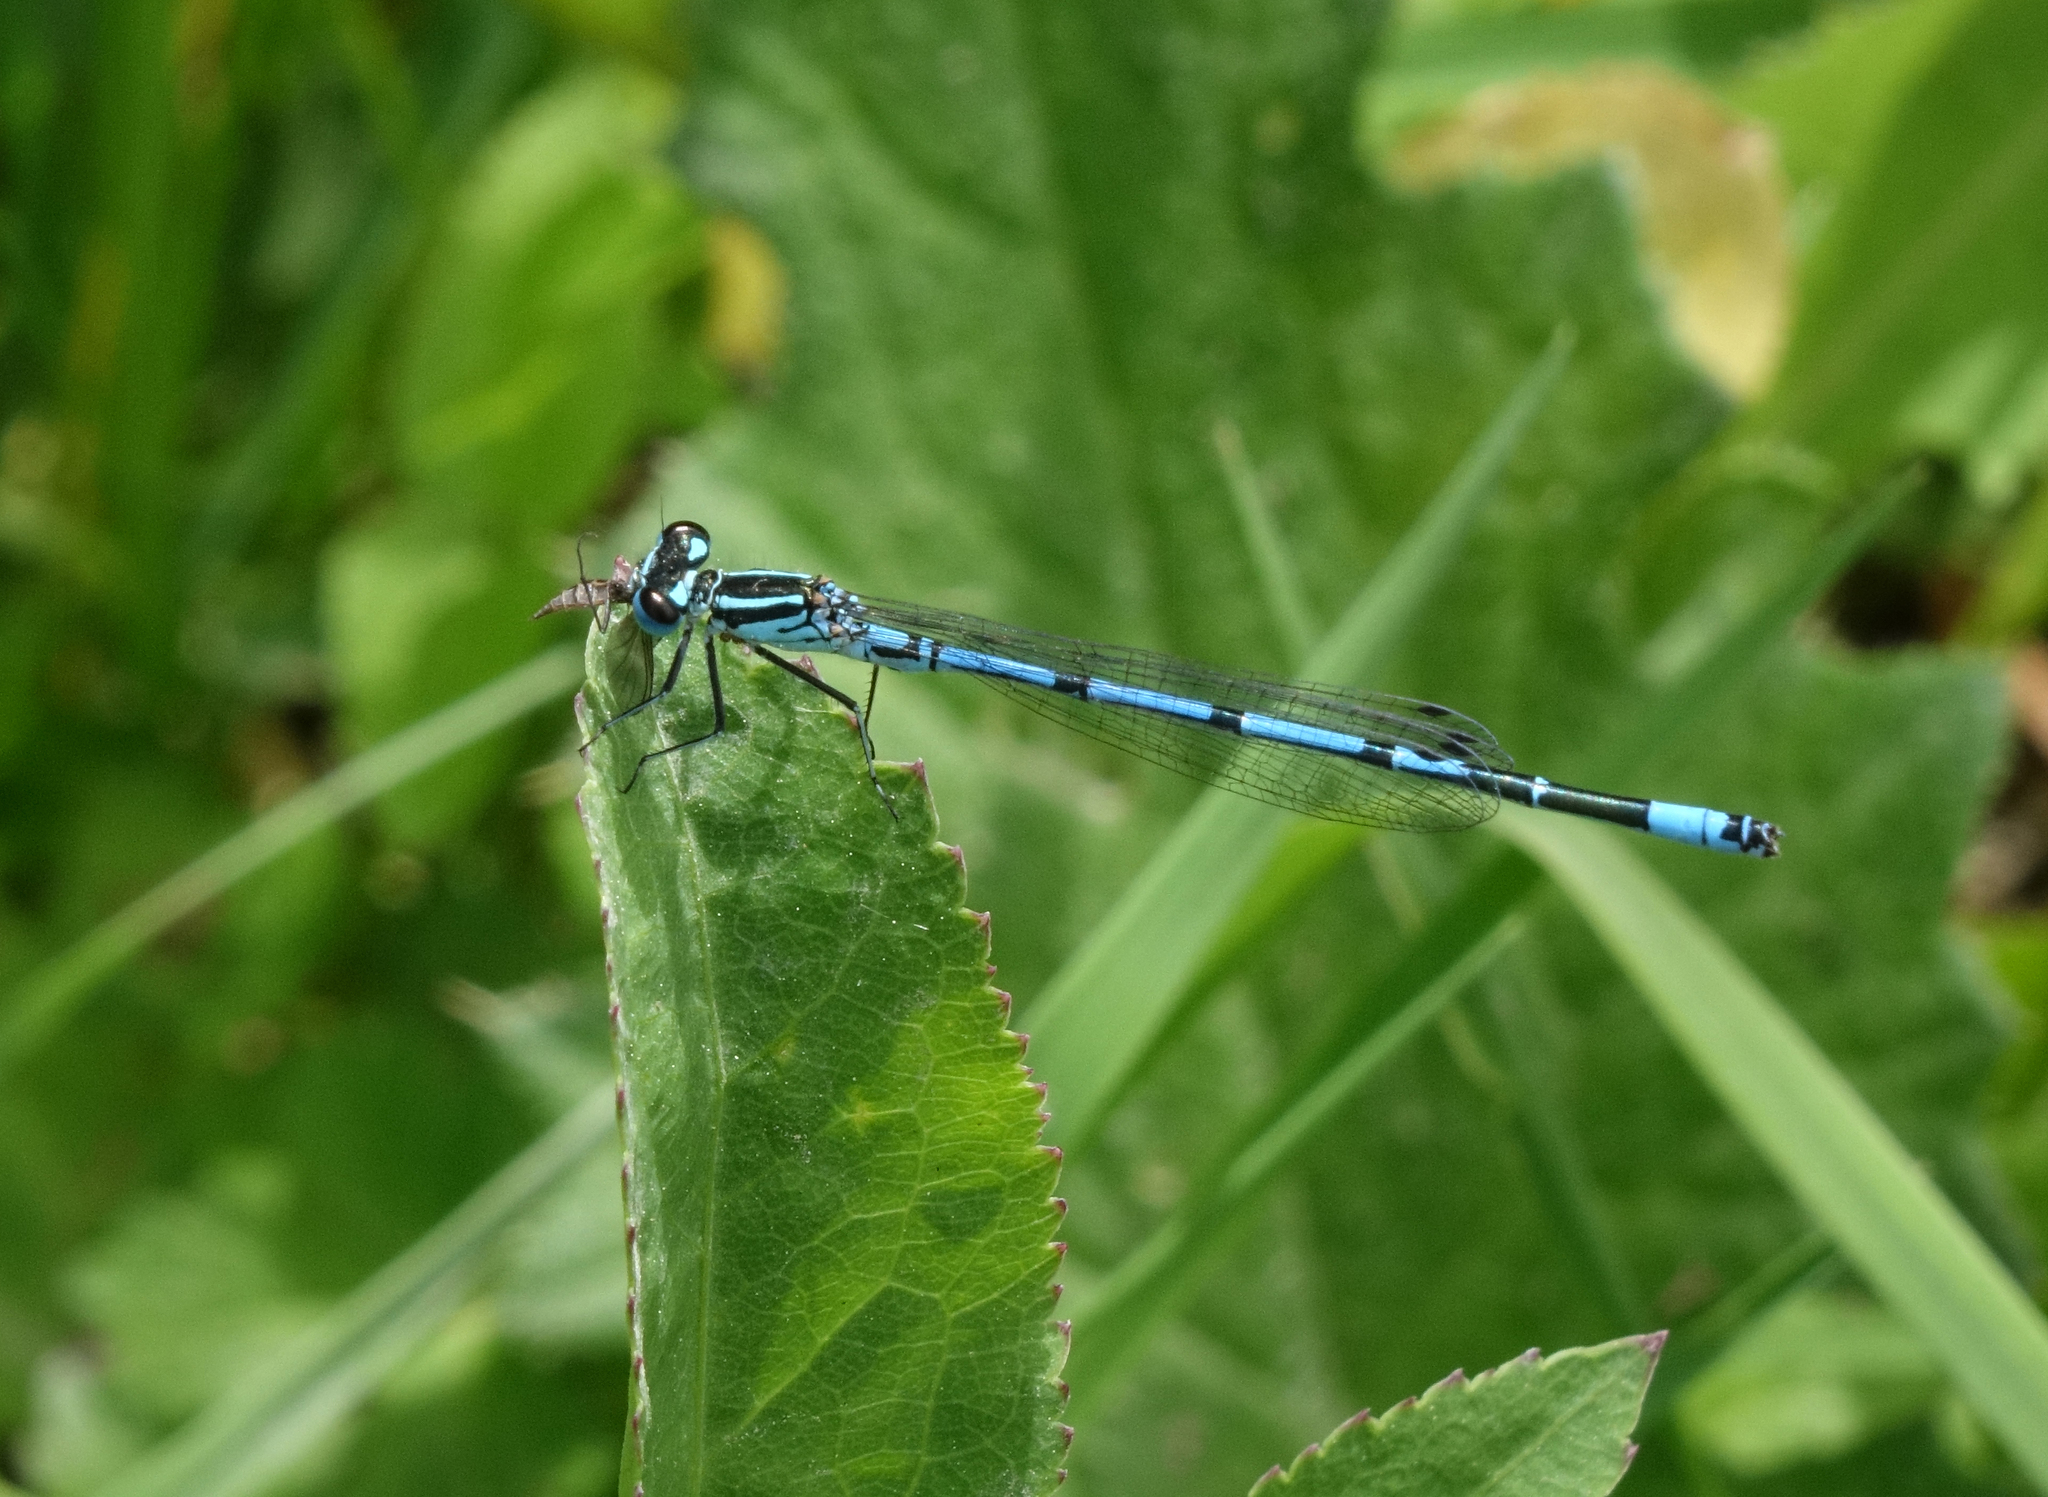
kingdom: Animalia
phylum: Arthropoda
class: Insecta
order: Odonata
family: Coenagrionidae
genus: Coenagrion
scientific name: Coenagrion puella
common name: Azure damselfly
